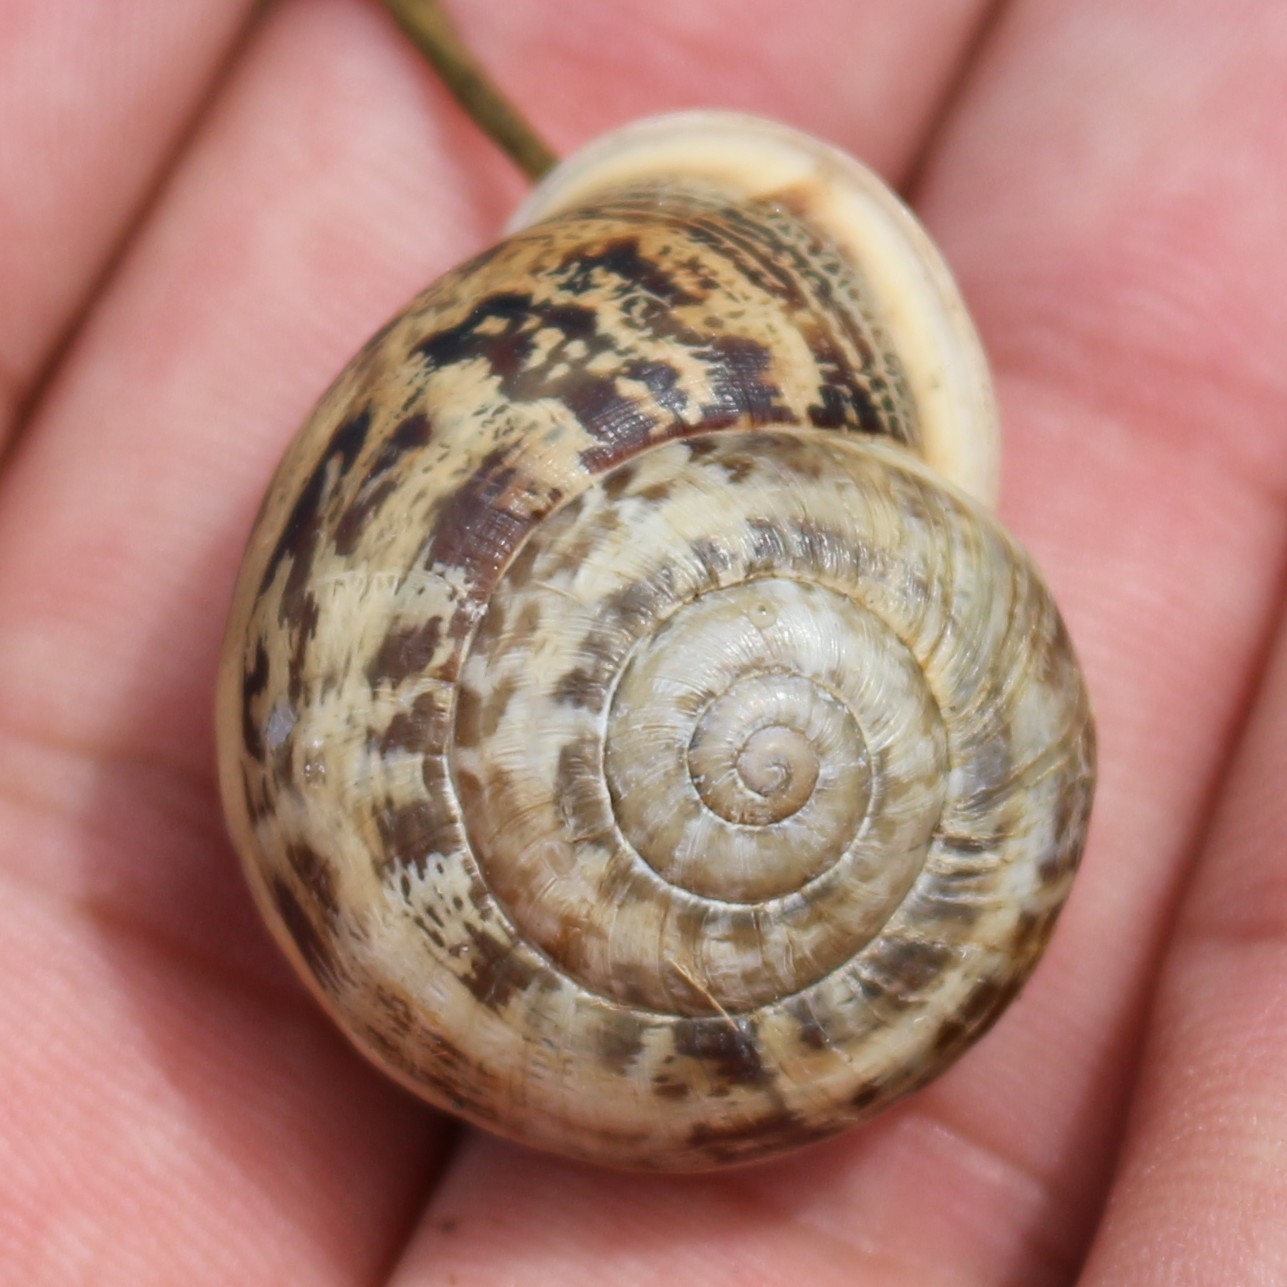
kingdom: Animalia
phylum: Mollusca
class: Gastropoda
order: Stylommatophora
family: Helicidae
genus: Eobania
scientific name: Eobania vermiculata
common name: Chocolateband snail
